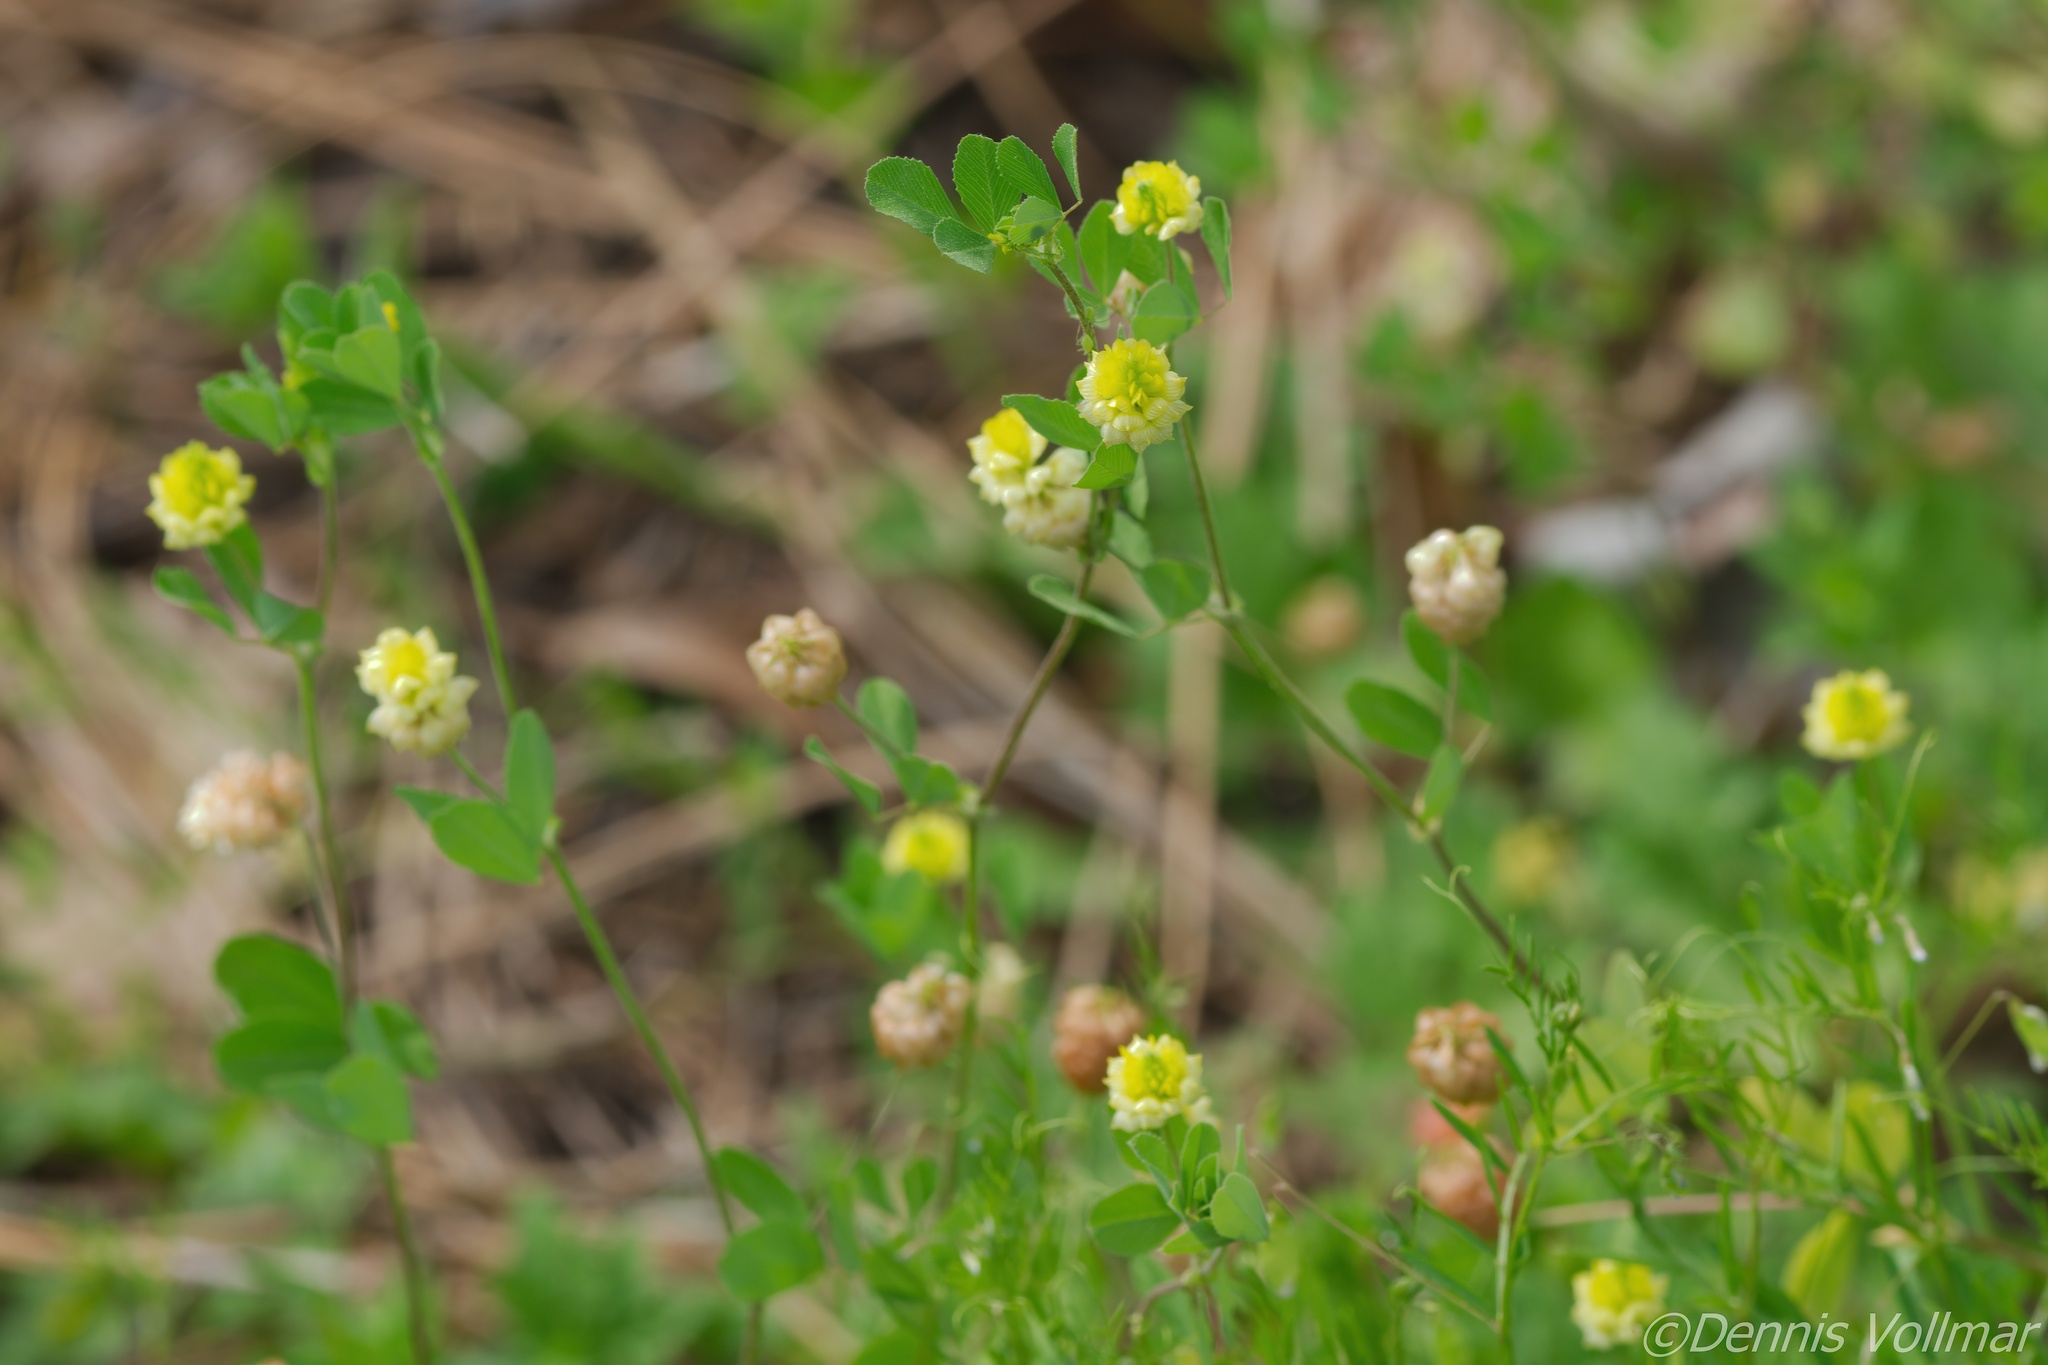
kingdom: Plantae
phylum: Tracheophyta
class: Magnoliopsida
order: Fabales
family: Fabaceae
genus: Trifolium
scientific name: Trifolium campestre
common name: Field clover
